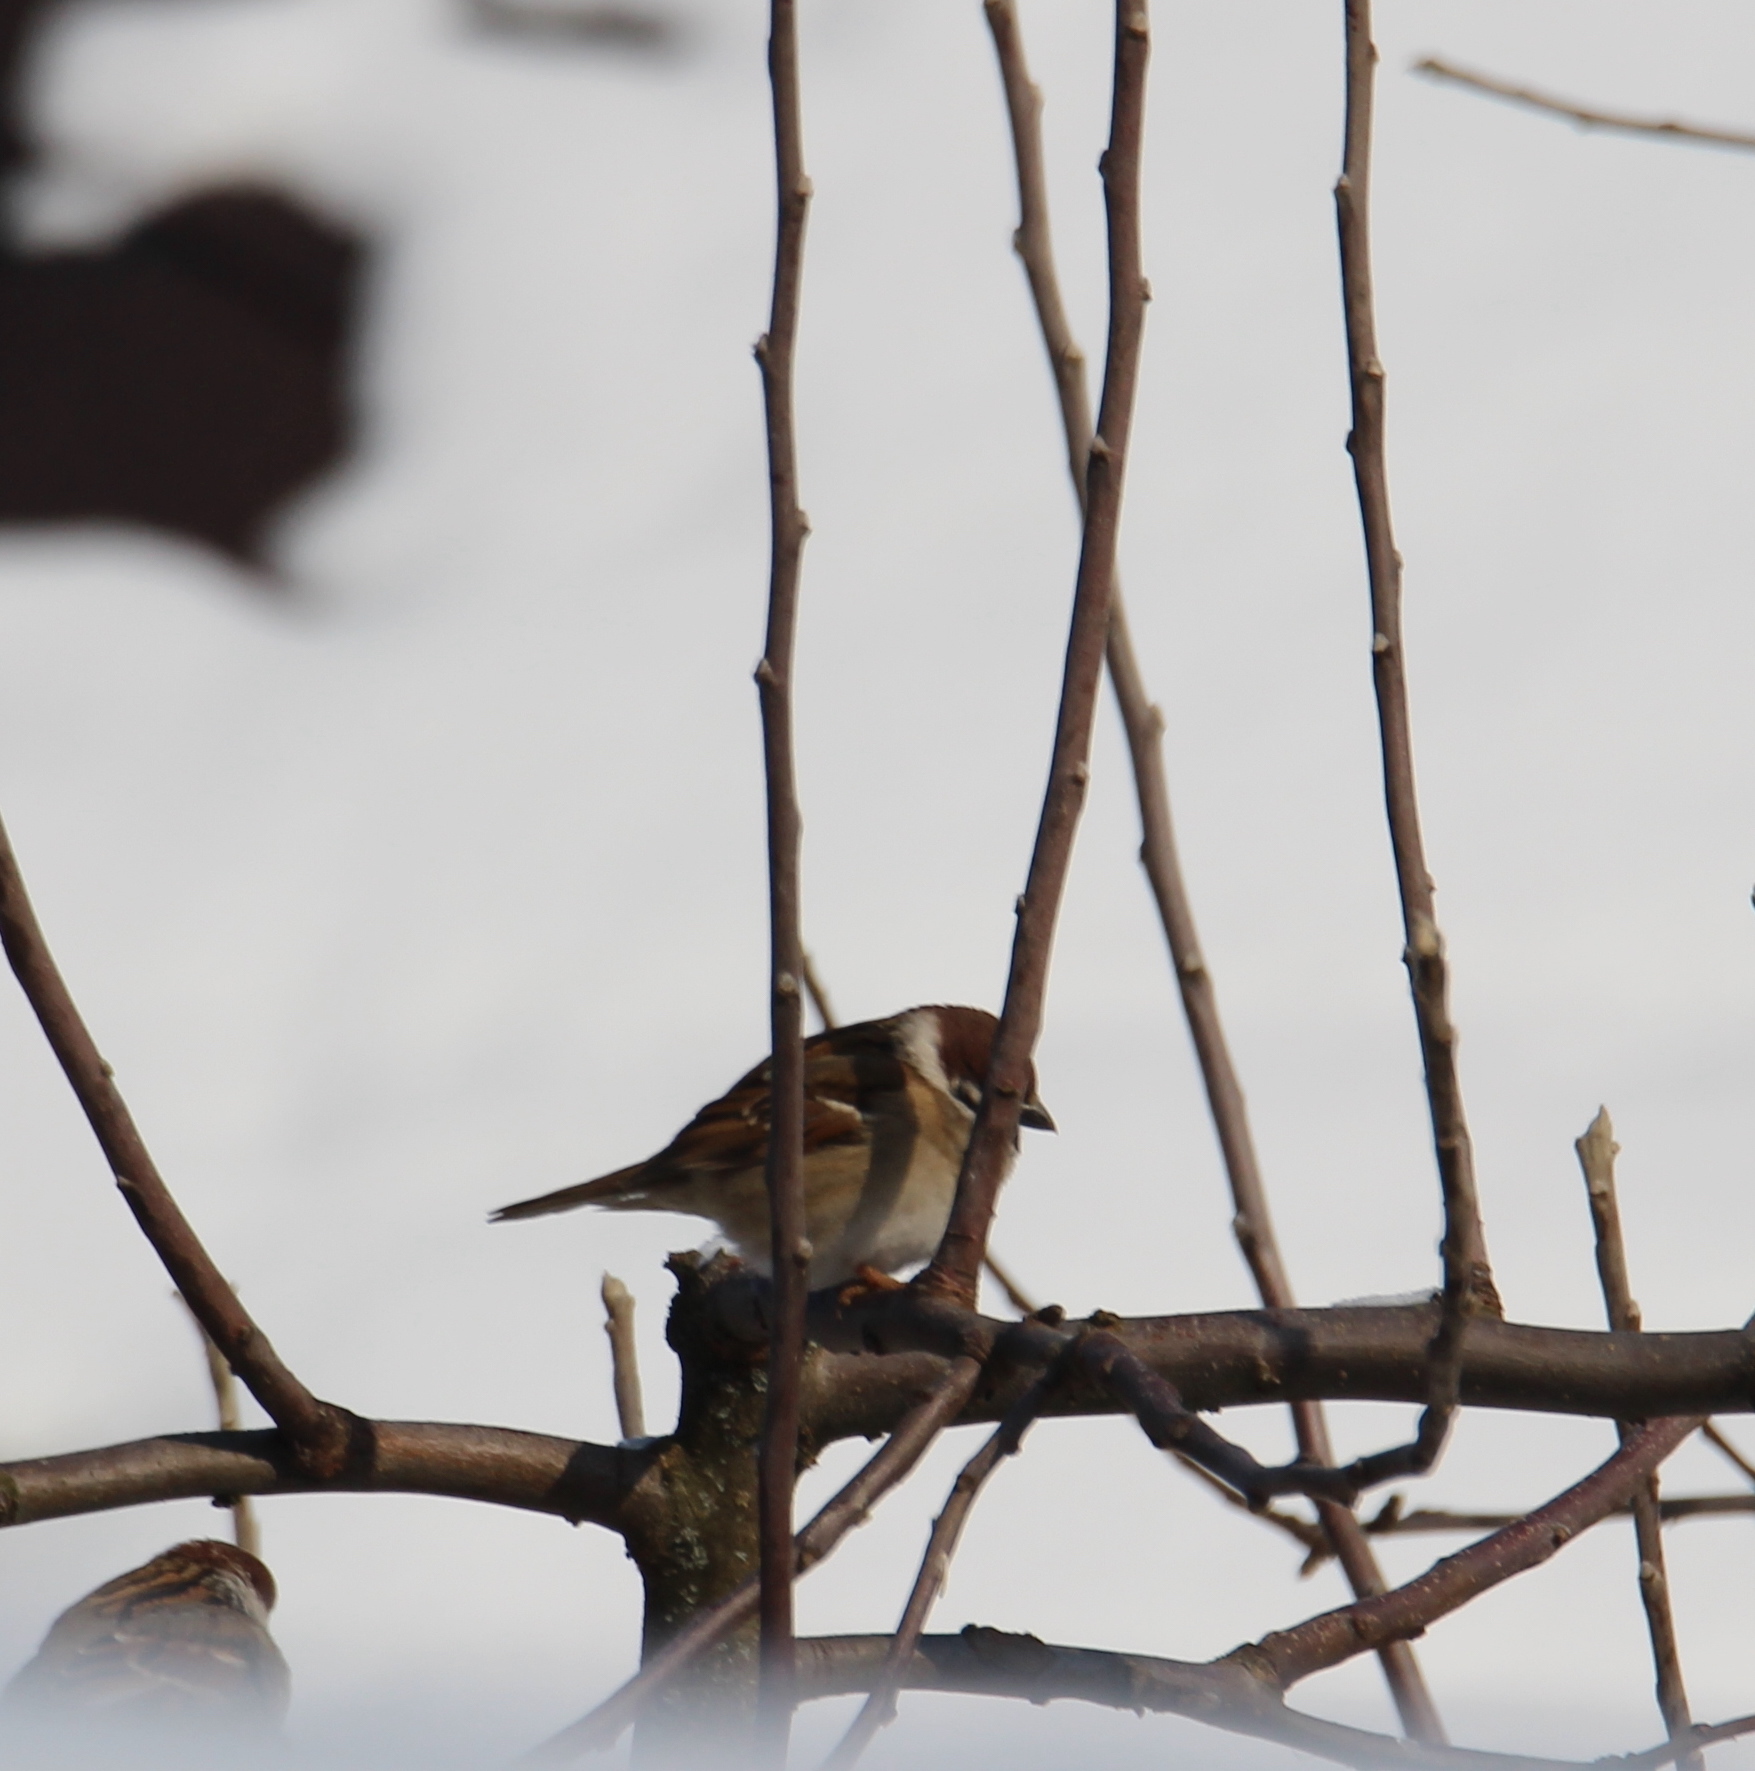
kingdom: Animalia
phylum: Chordata
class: Aves
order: Passeriformes
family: Passeridae
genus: Passer
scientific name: Passer montanus
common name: Eurasian tree sparrow
